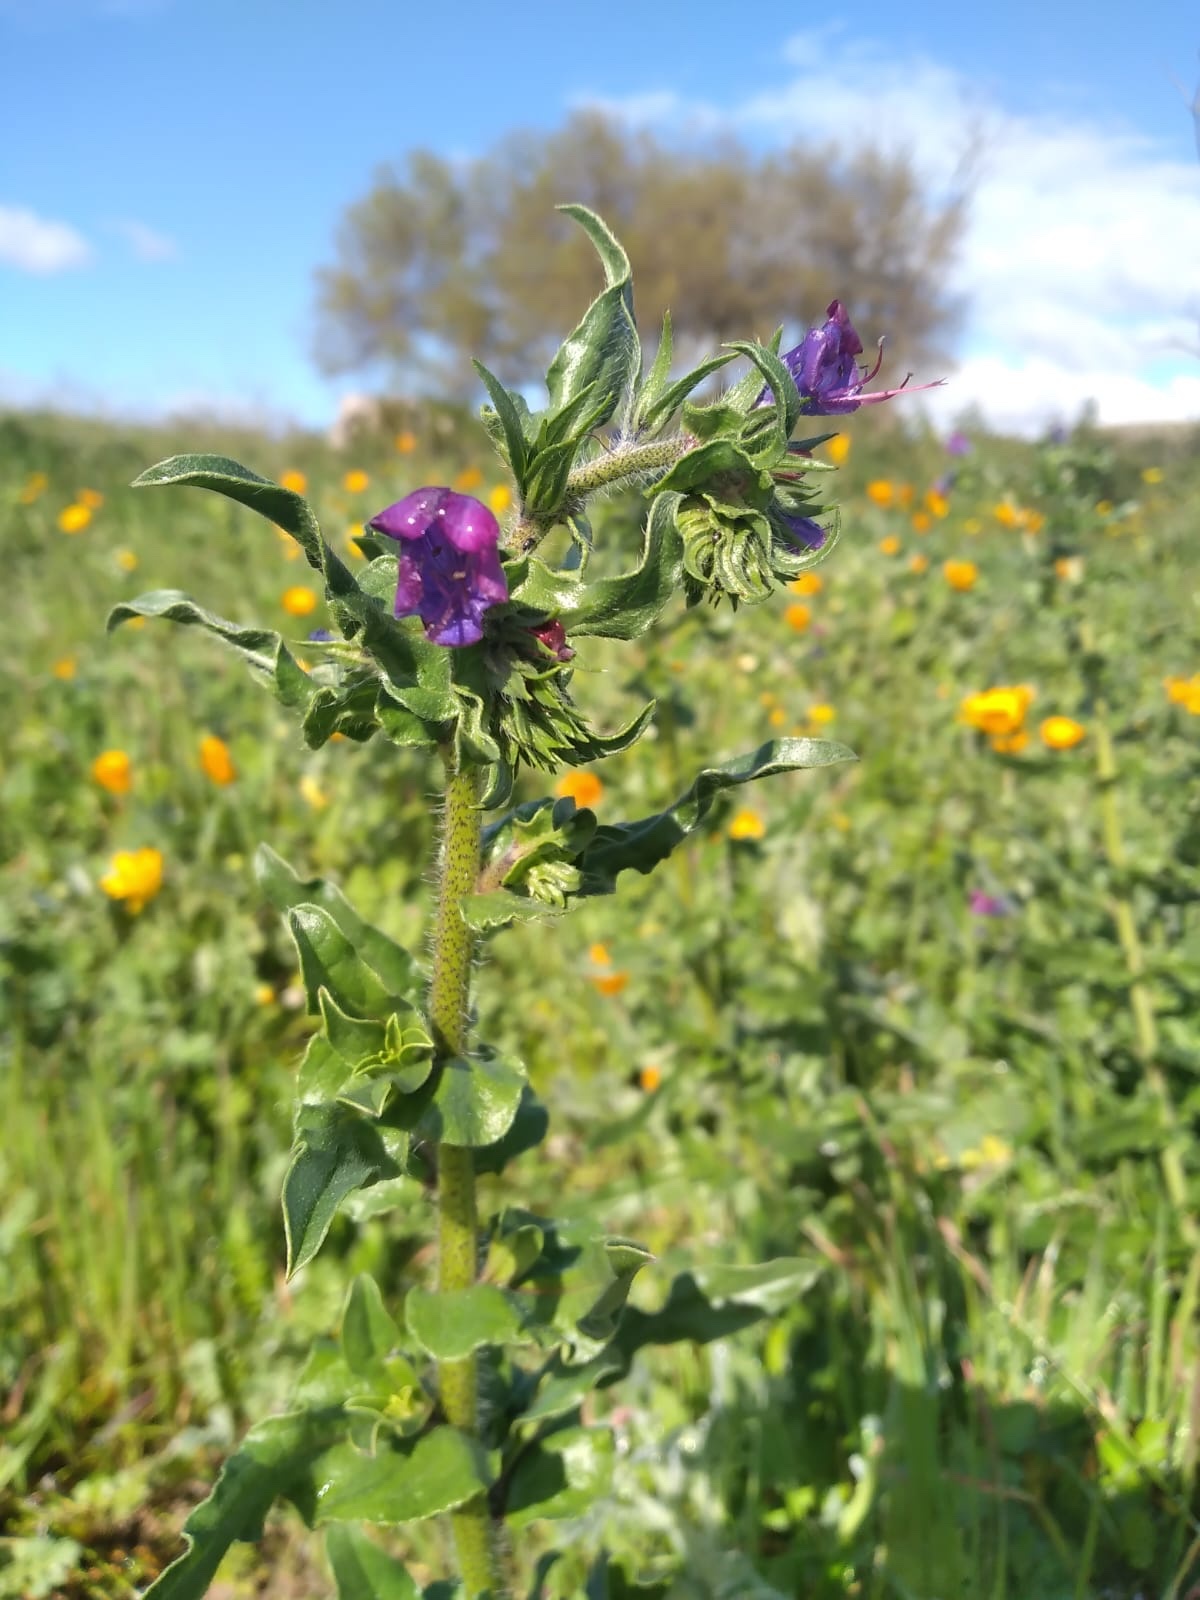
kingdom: Plantae
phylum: Tracheophyta
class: Magnoliopsida
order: Boraginales
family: Boraginaceae
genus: Echium
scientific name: Echium plantagineum
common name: Purple viper's-bugloss
